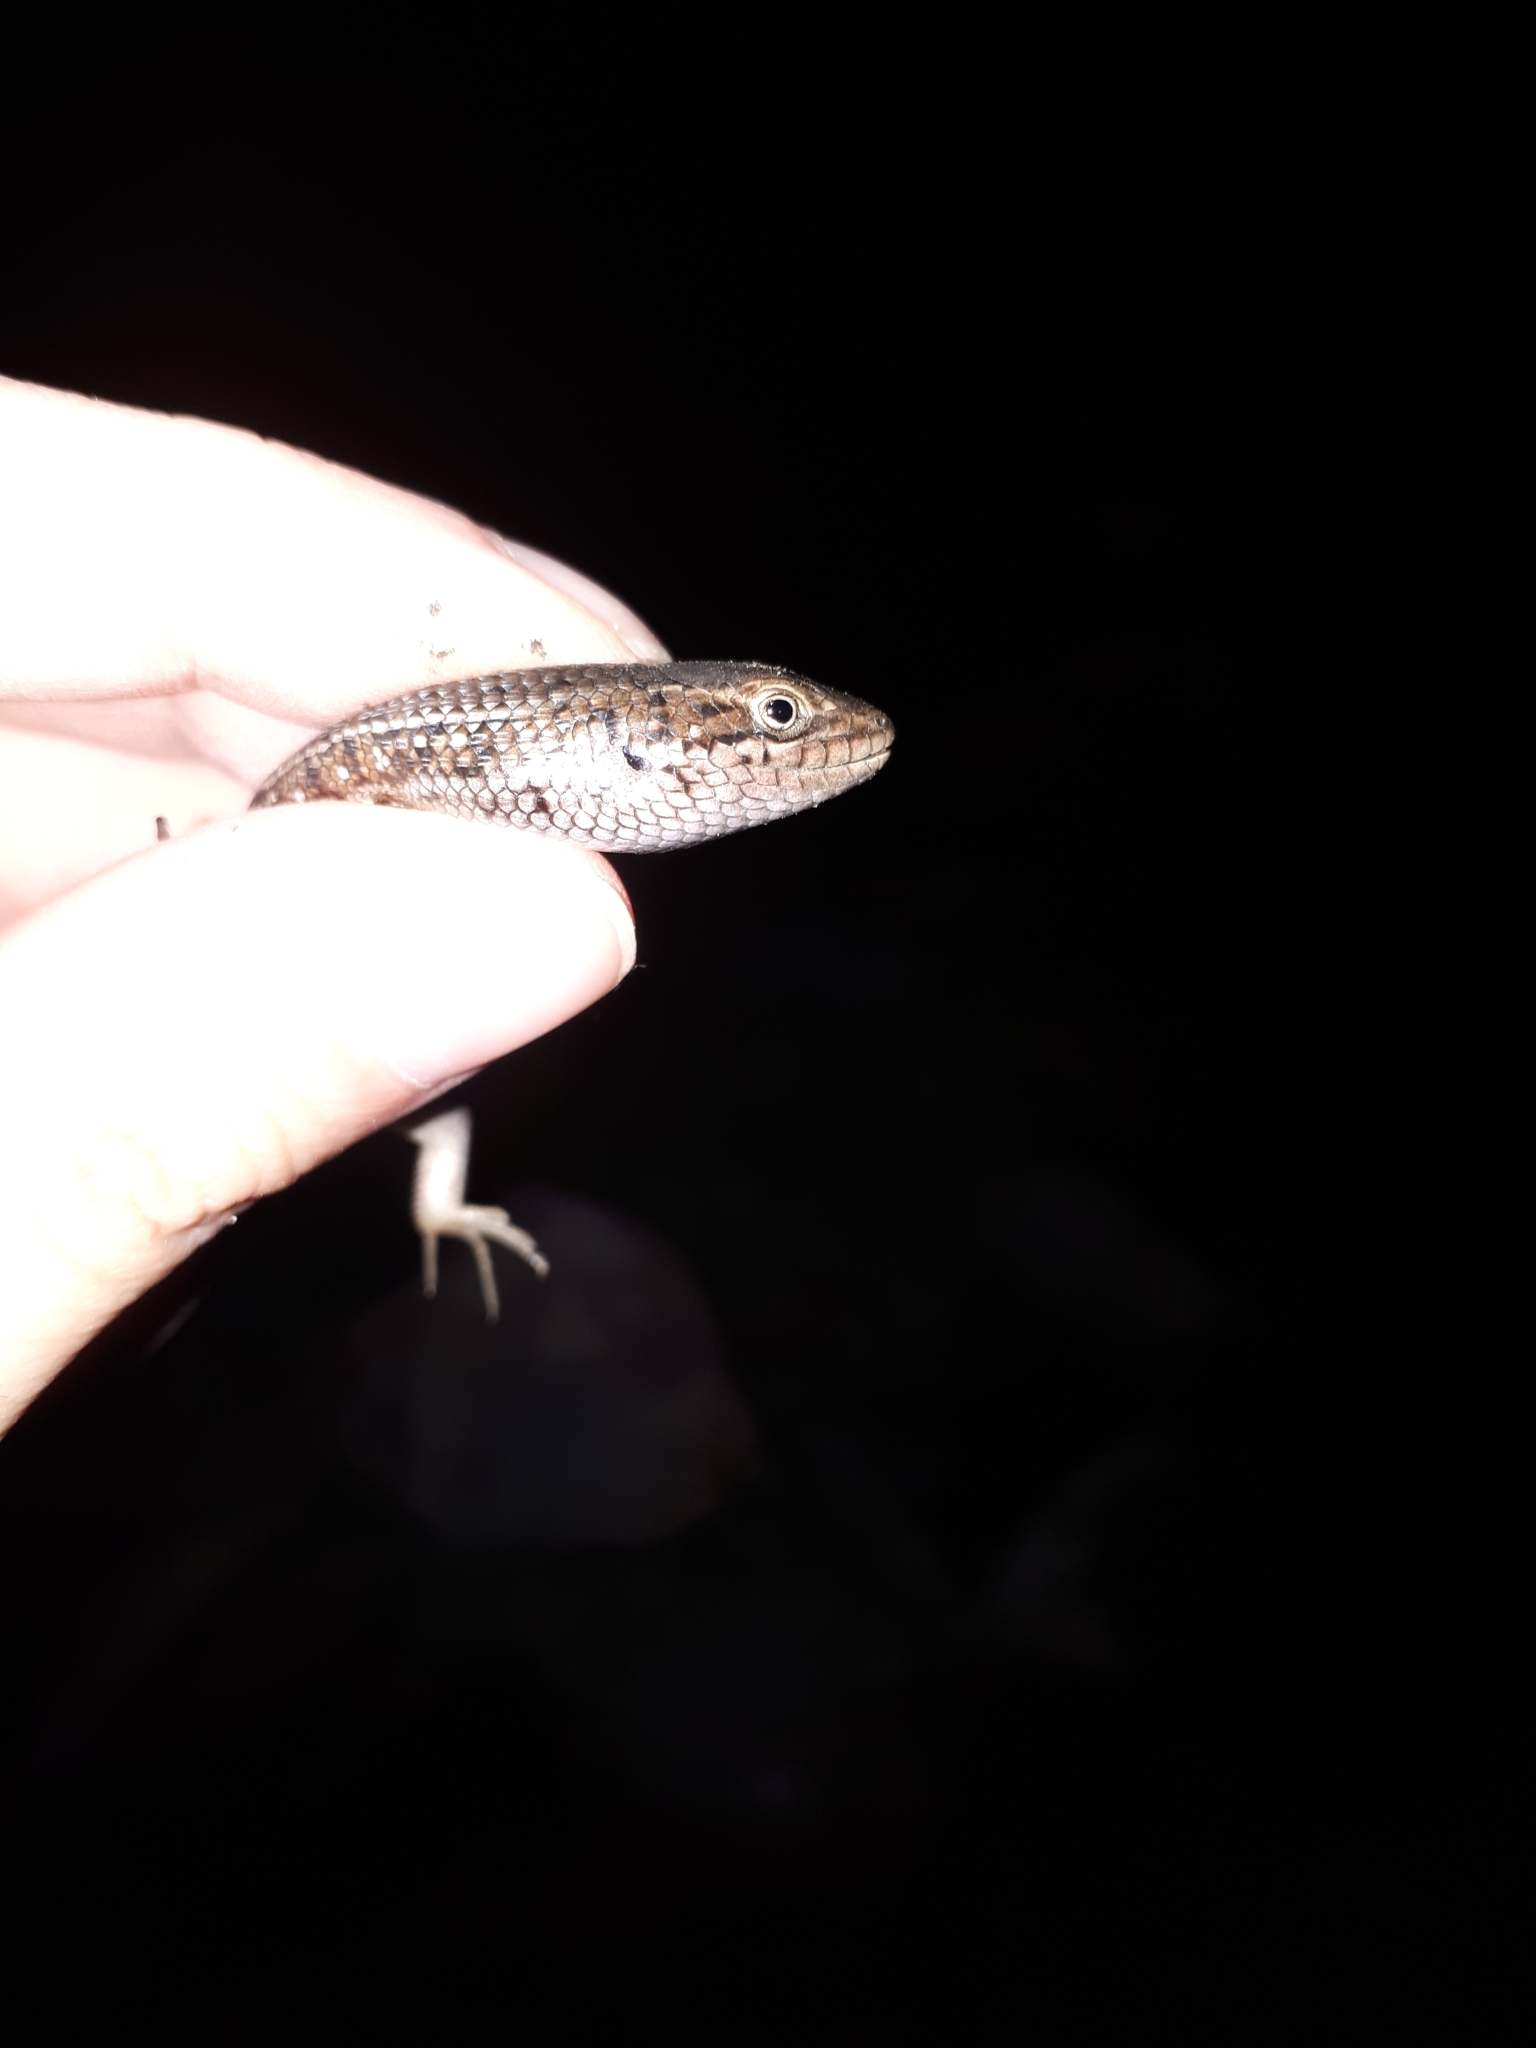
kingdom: Animalia
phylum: Chordata
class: Squamata
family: Scincidae
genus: Trachylepis
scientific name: Trachylepis capensis
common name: Cape skink
